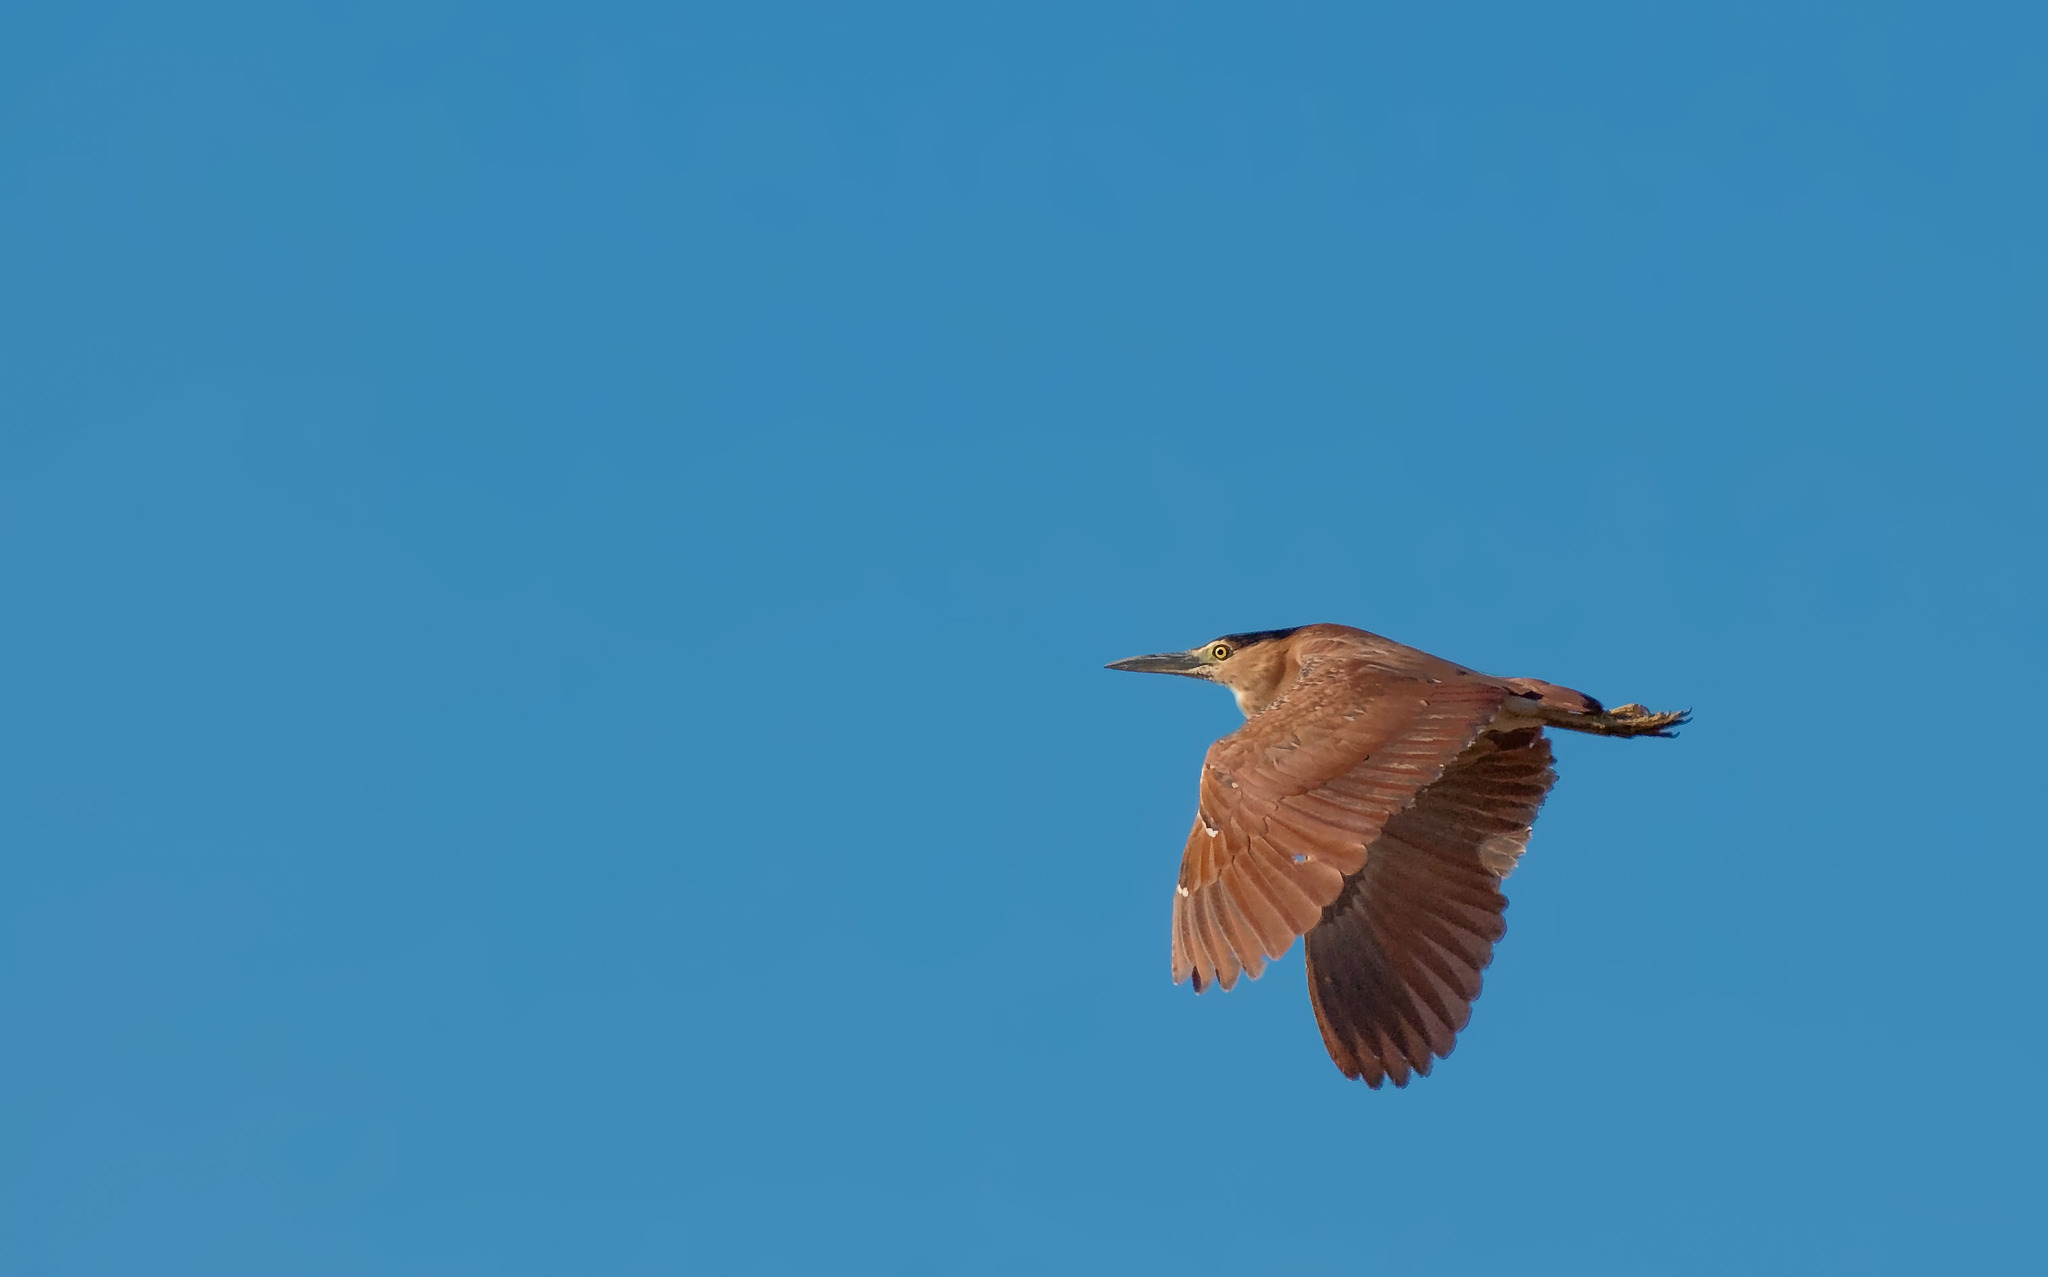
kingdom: Animalia
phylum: Chordata
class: Aves
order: Pelecaniformes
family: Ardeidae
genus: Nycticorax
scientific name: Nycticorax caledonicus
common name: Rufous night-heron
